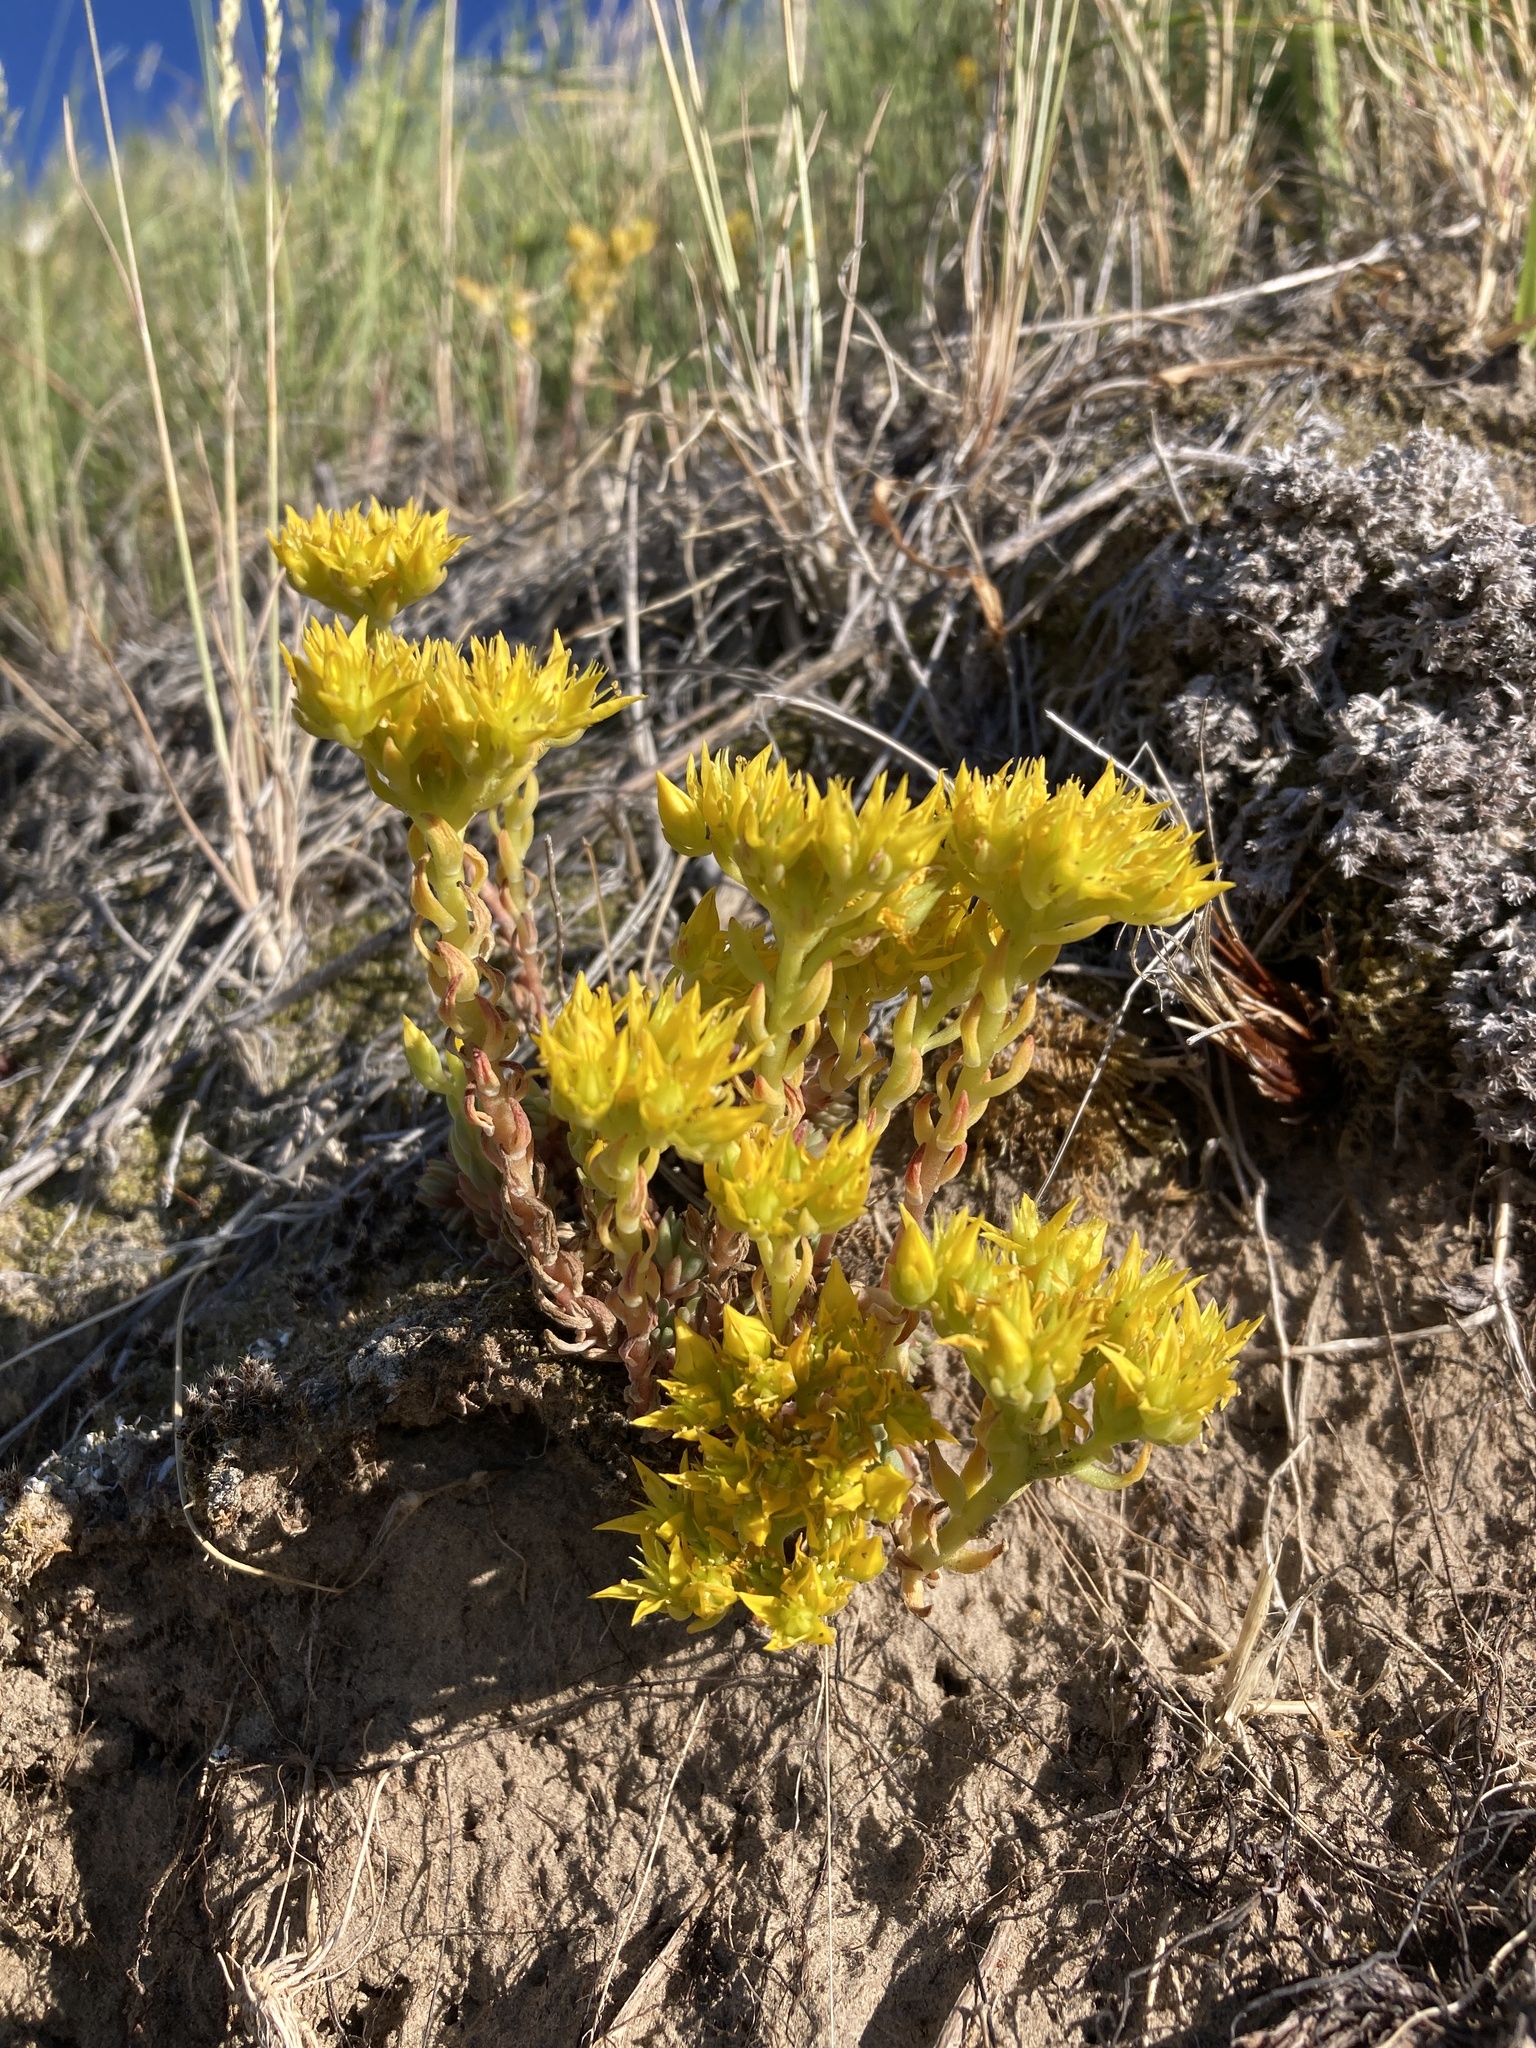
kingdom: Plantae
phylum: Tracheophyta
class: Magnoliopsida
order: Saxifragales
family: Crassulaceae
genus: Sedum
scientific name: Sedum lanceolatum
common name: Common stonecrop
